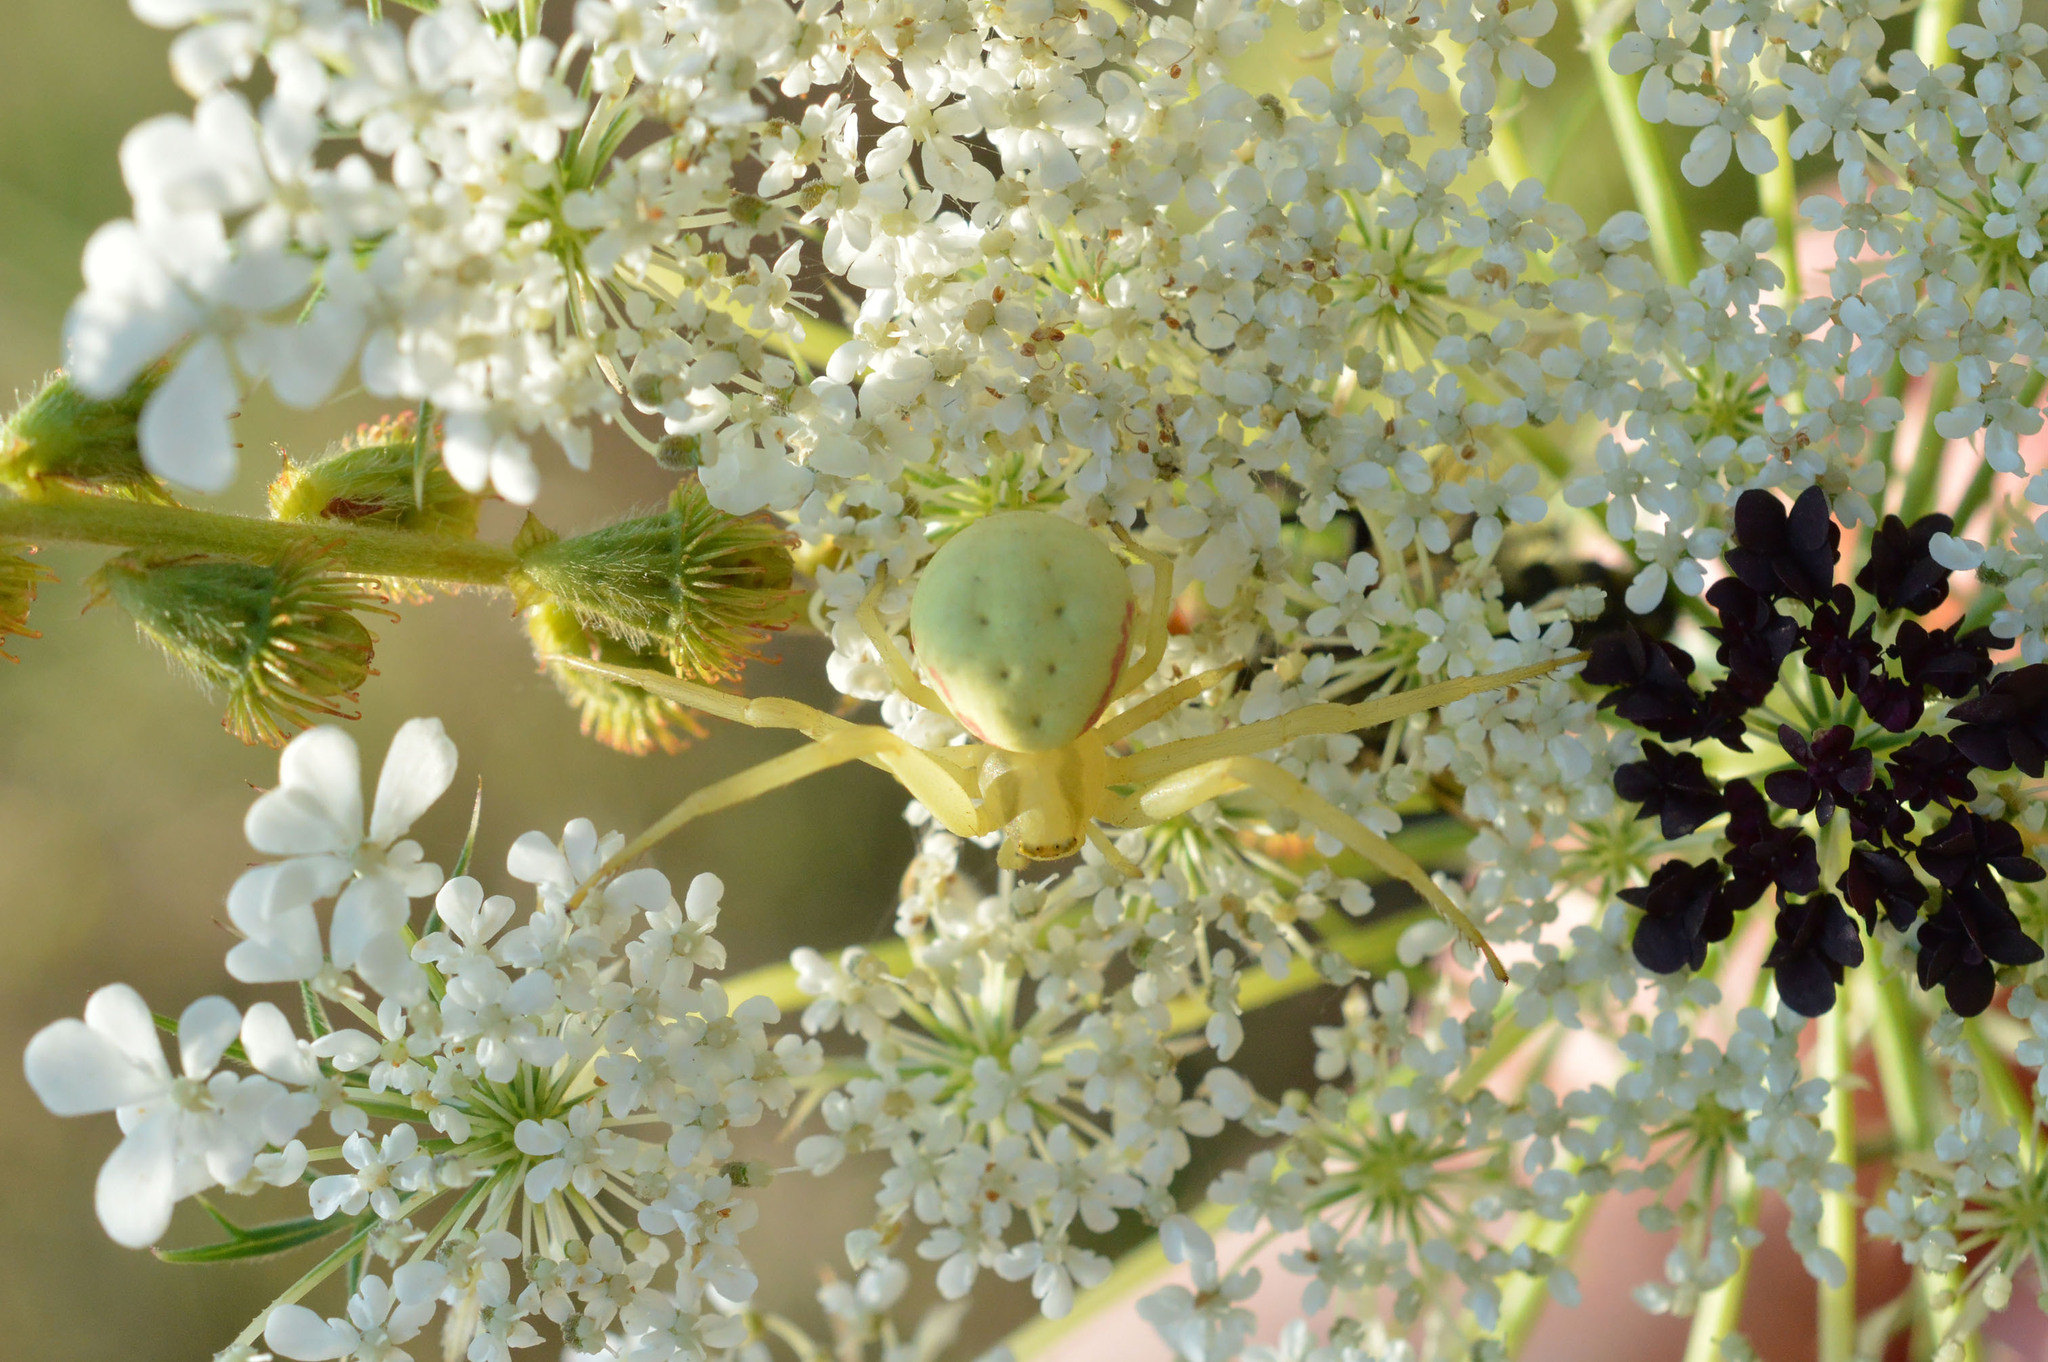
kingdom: Animalia
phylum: Arthropoda
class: Arachnida
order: Araneae
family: Thomisidae
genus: Misumena
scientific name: Misumena vatia
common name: Goldenrod crab spider
